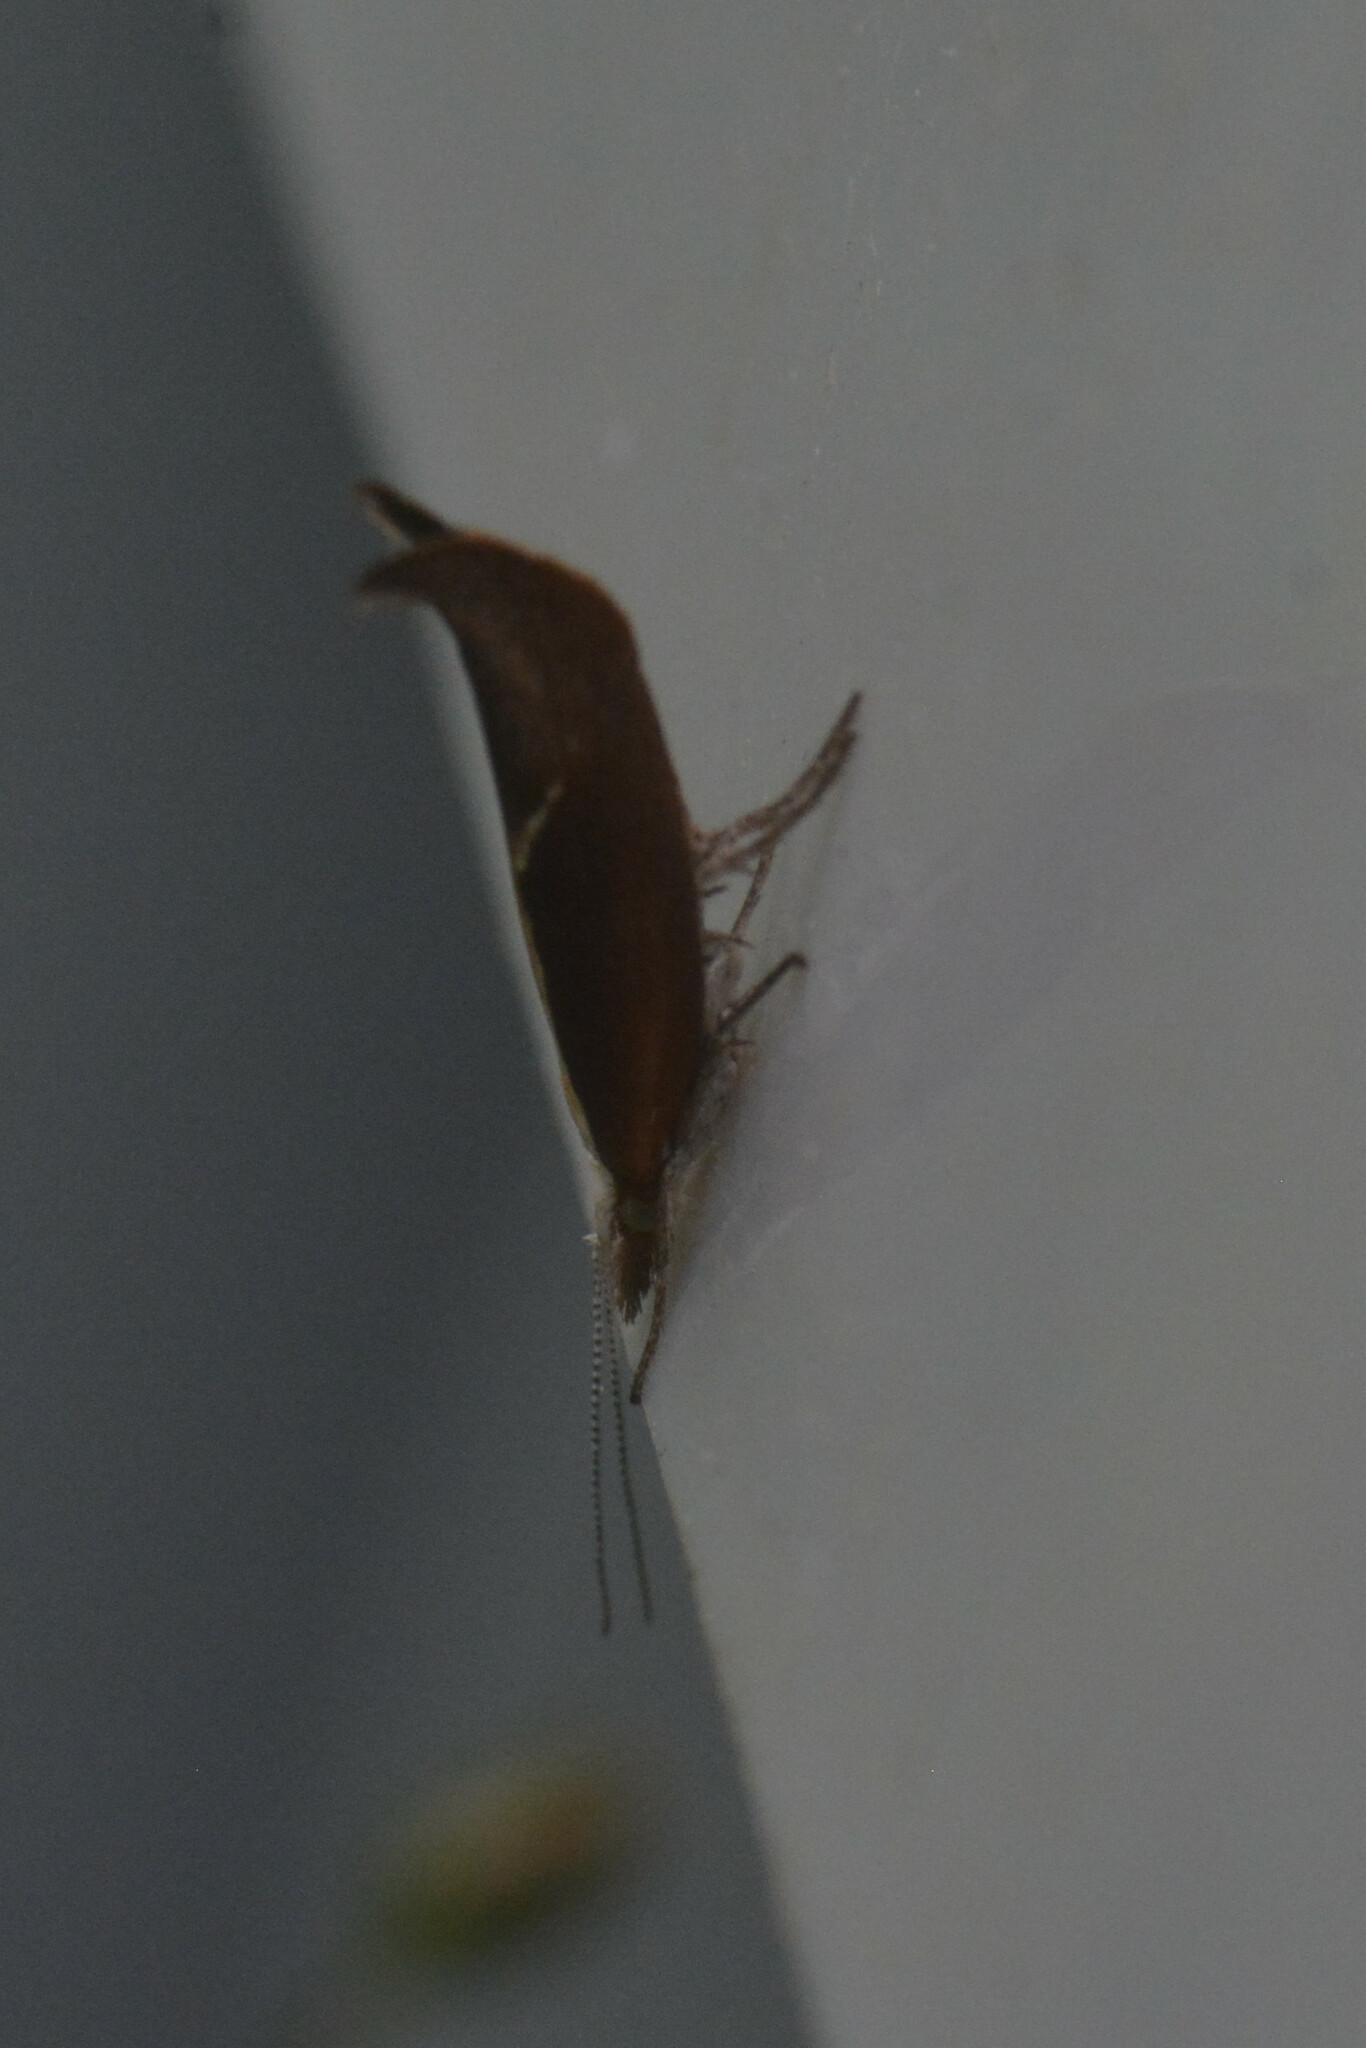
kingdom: Animalia
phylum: Arthropoda
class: Insecta
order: Lepidoptera
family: Ypsolophidae
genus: Ypsolopha
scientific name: Ypsolopha dentella
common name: Honeysuckle moth
